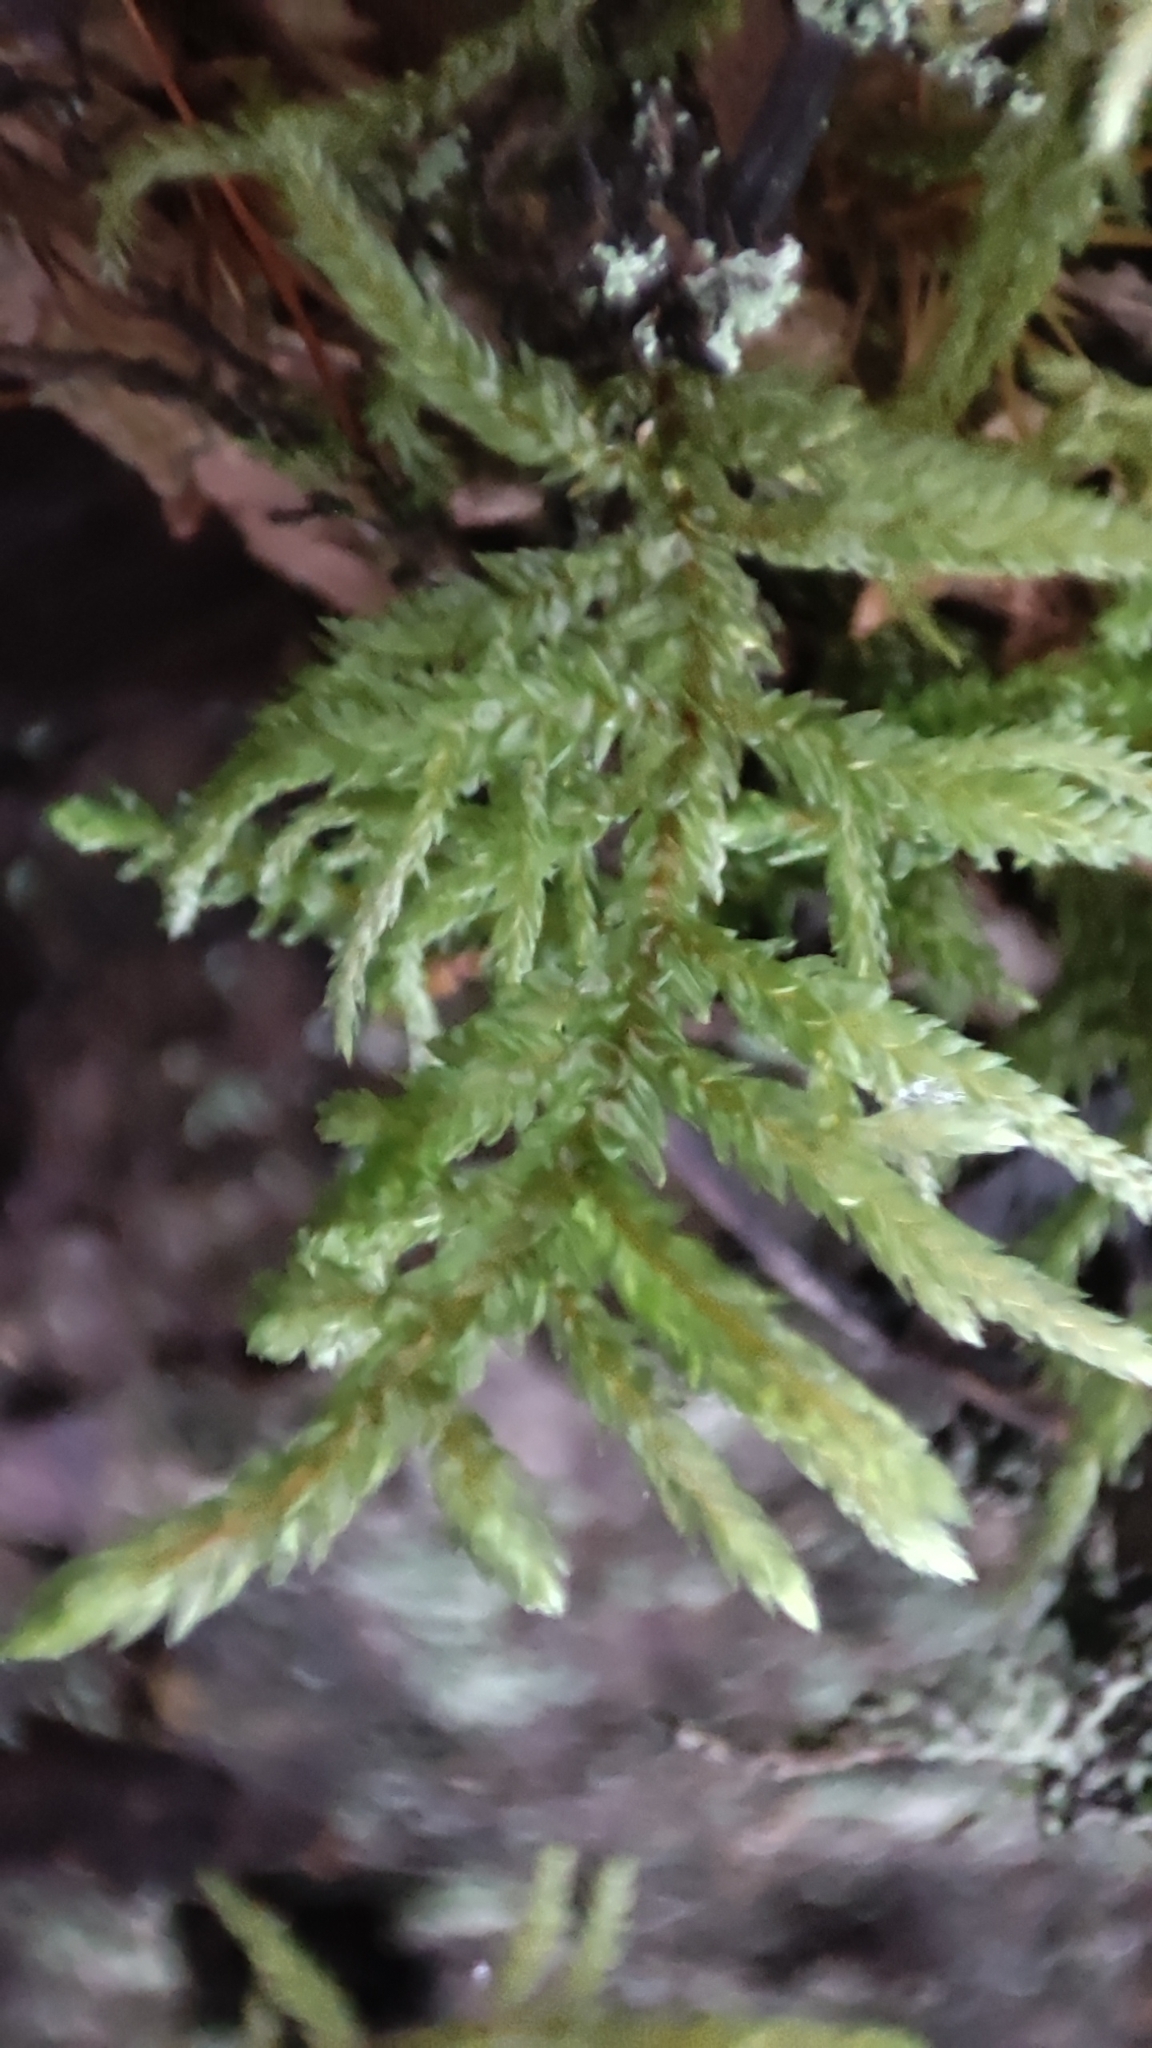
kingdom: Plantae
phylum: Bryophyta
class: Bryopsida
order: Hypnales
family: Hylocomiaceae
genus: Pleurozium
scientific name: Pleurozium schreberi
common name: Red-stemmed feather moss
